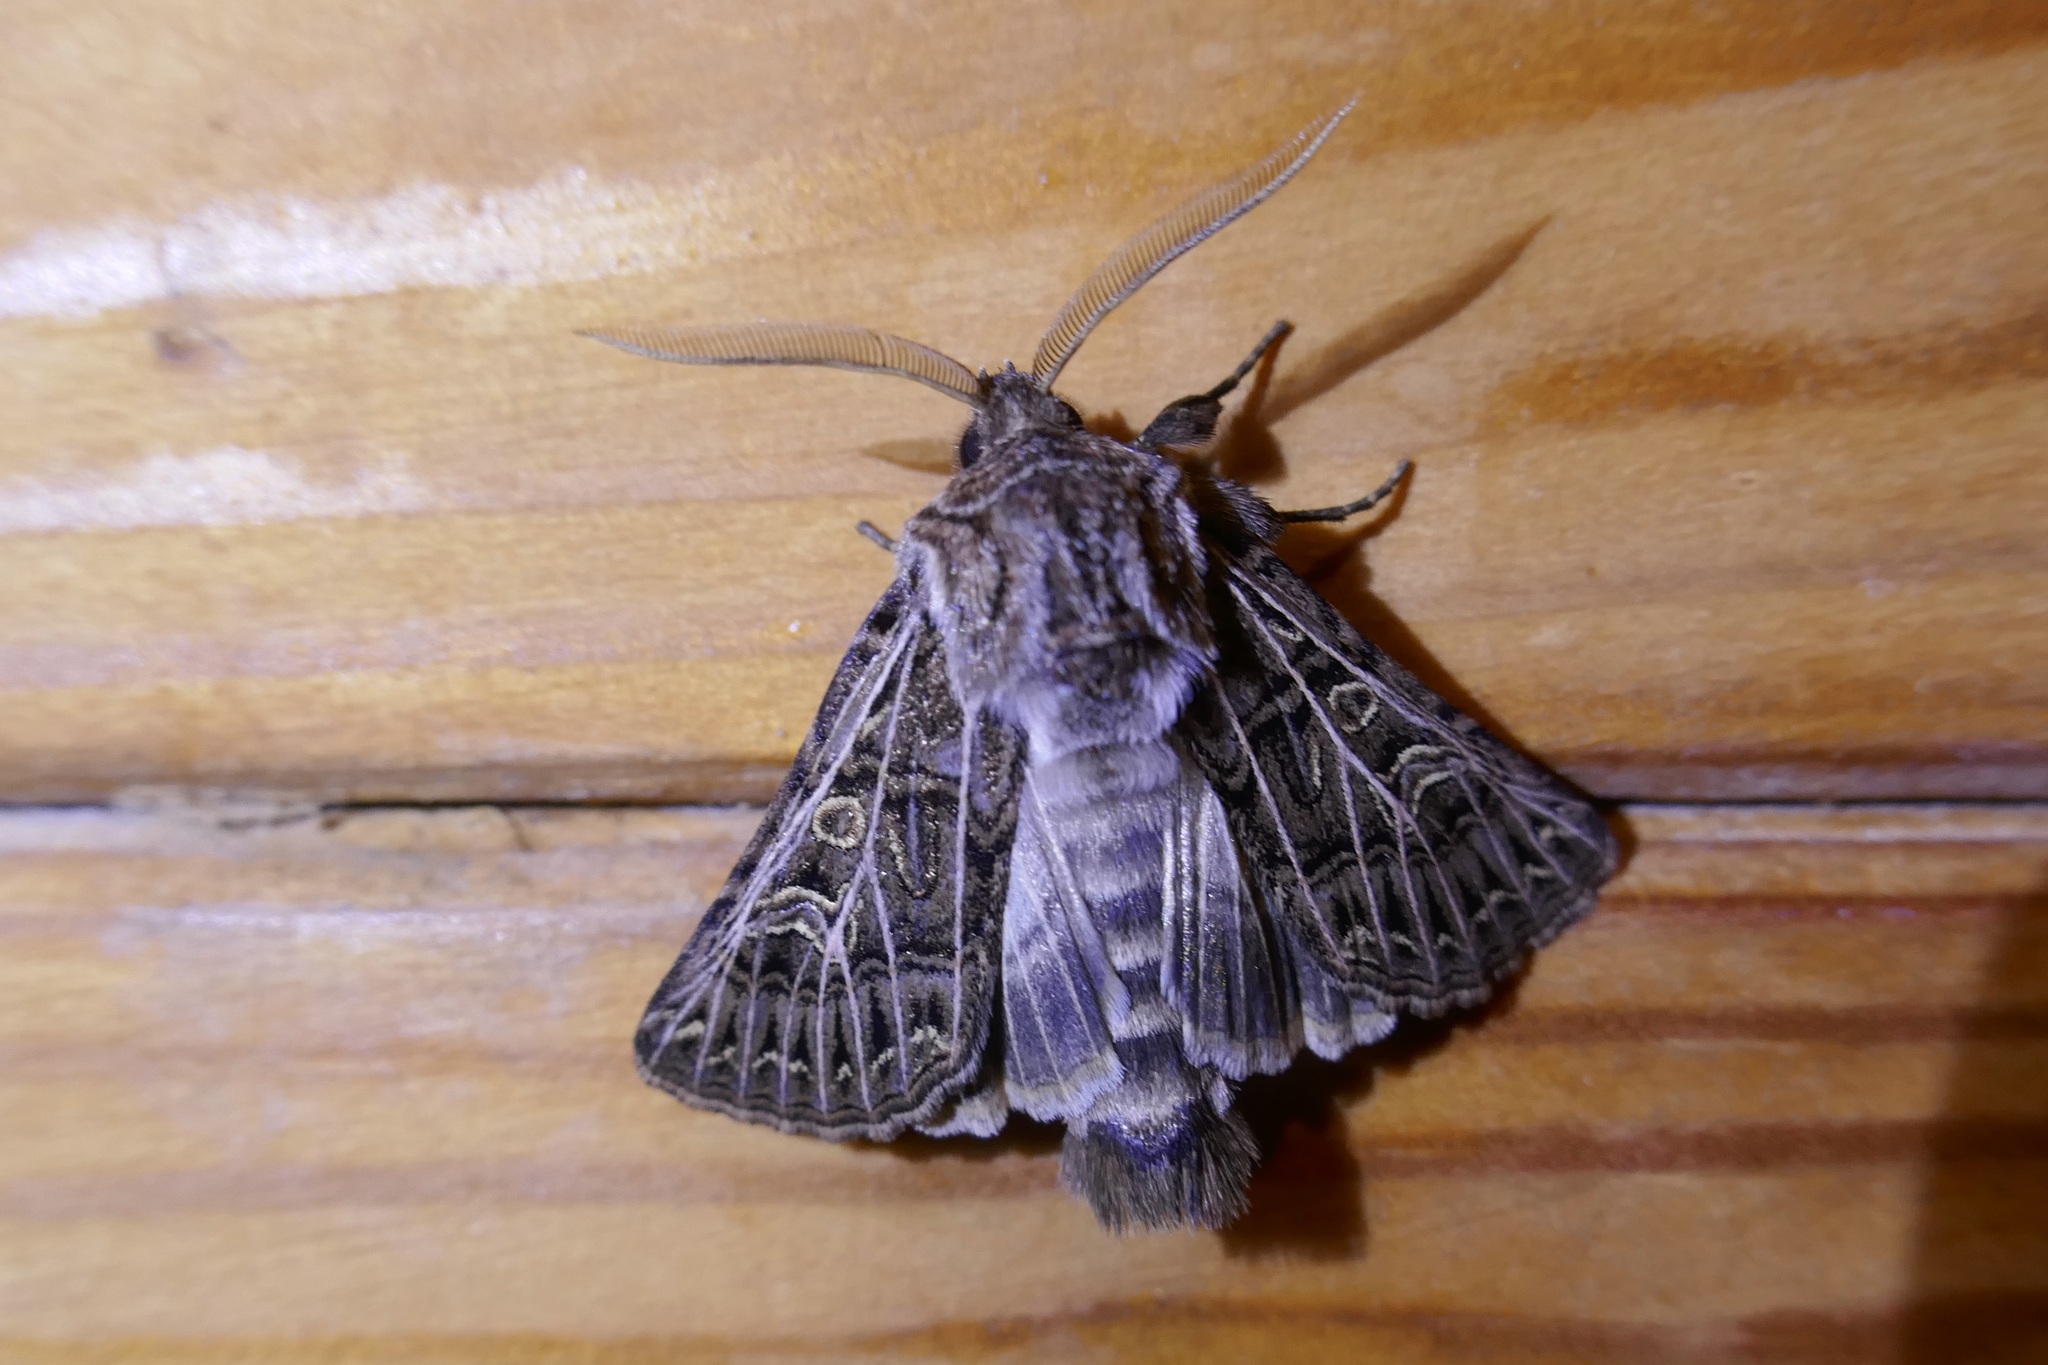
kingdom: Animalia
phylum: Arthropoda
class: Insecta
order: Lepidoptera
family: Noctuidae
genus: Tholera
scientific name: Tholera decimalis
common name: Feathered gothic
